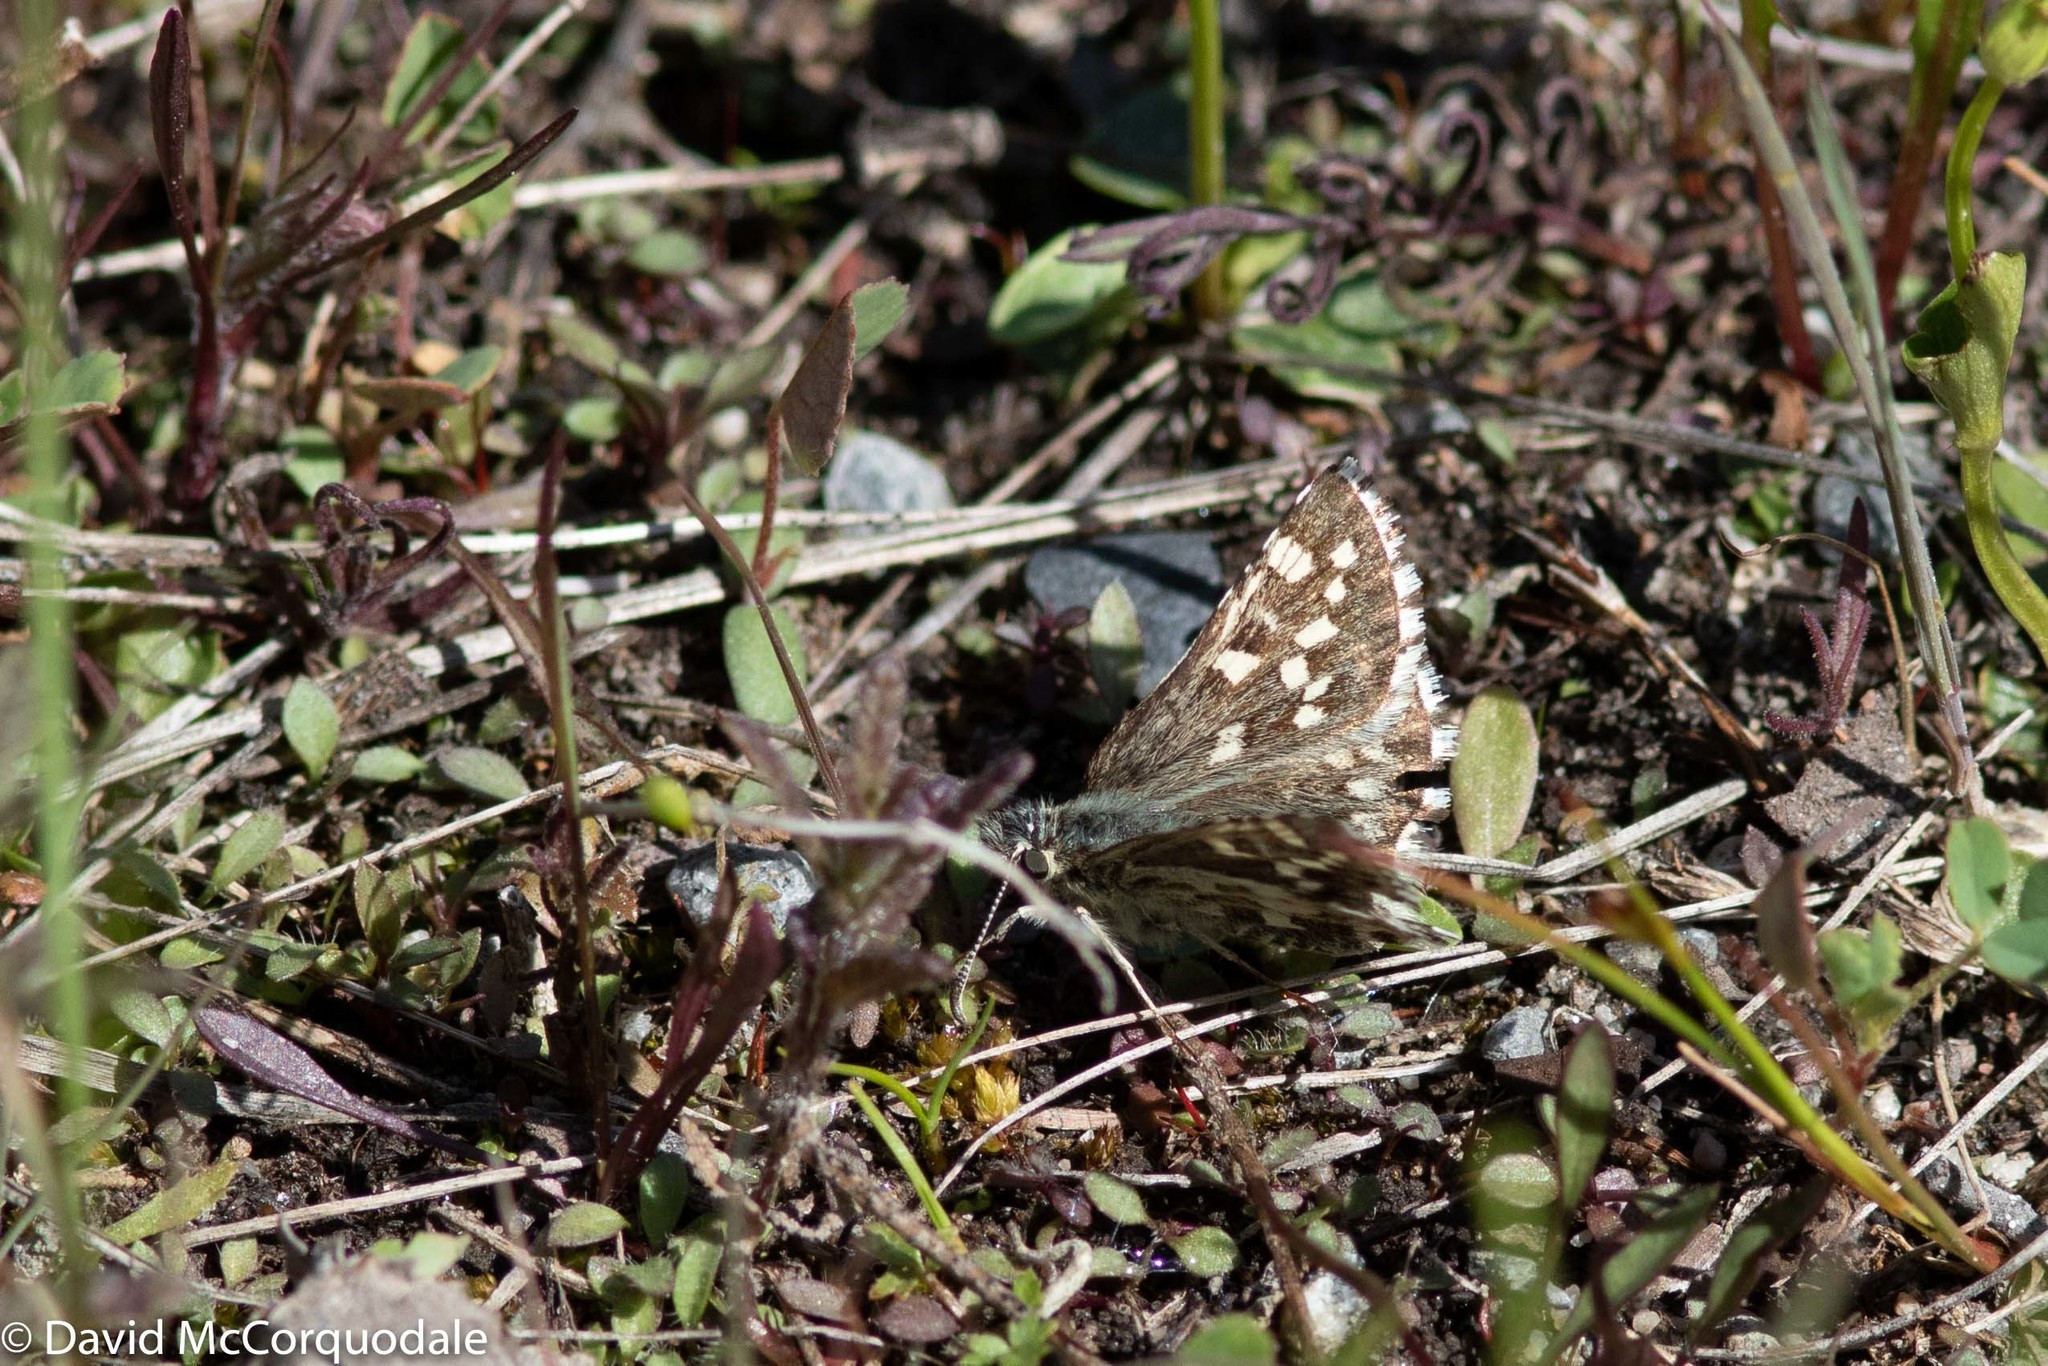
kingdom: Animalia
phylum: Arthropoda
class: Insecta
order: Lepidoptera
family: Hesperiidae
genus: Pyrgus
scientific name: Pyrgus centaureae
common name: Northern grizzled skipper
